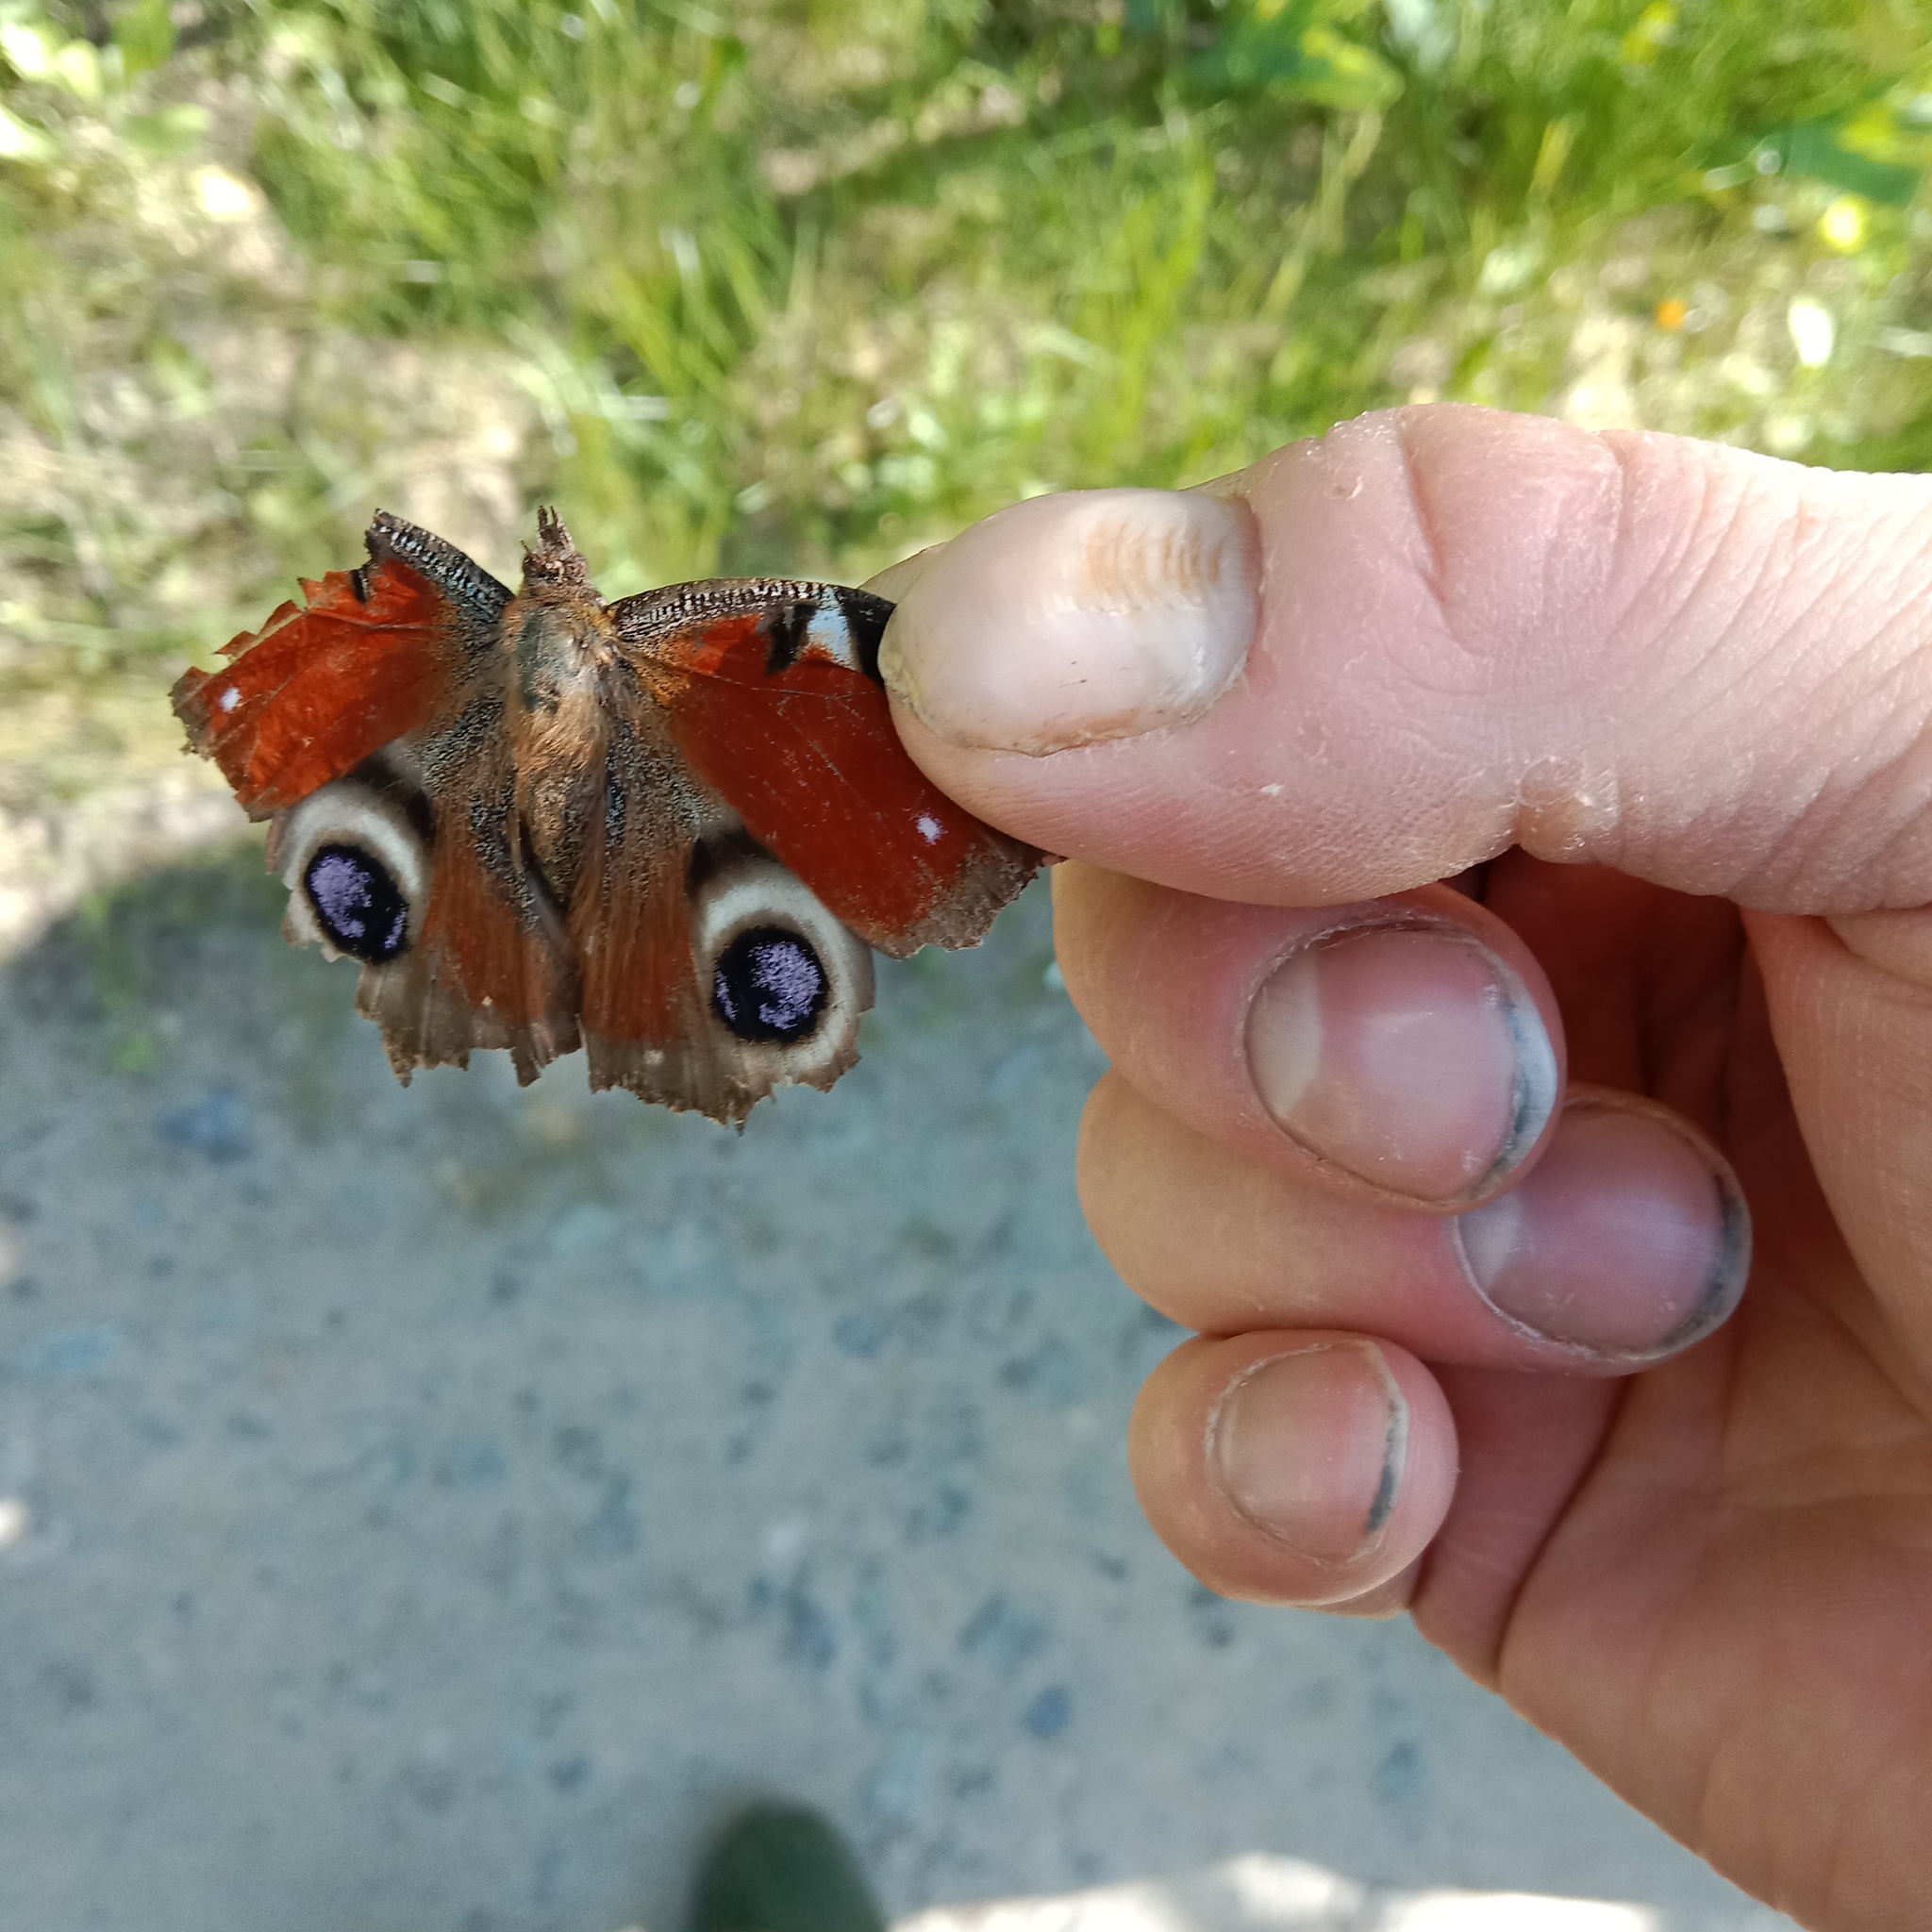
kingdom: Animalia
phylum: Arthropoda
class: Insecta
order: Lepidoptera
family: Nymphalidae
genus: Aglais
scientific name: Aglais io
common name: Peacock
